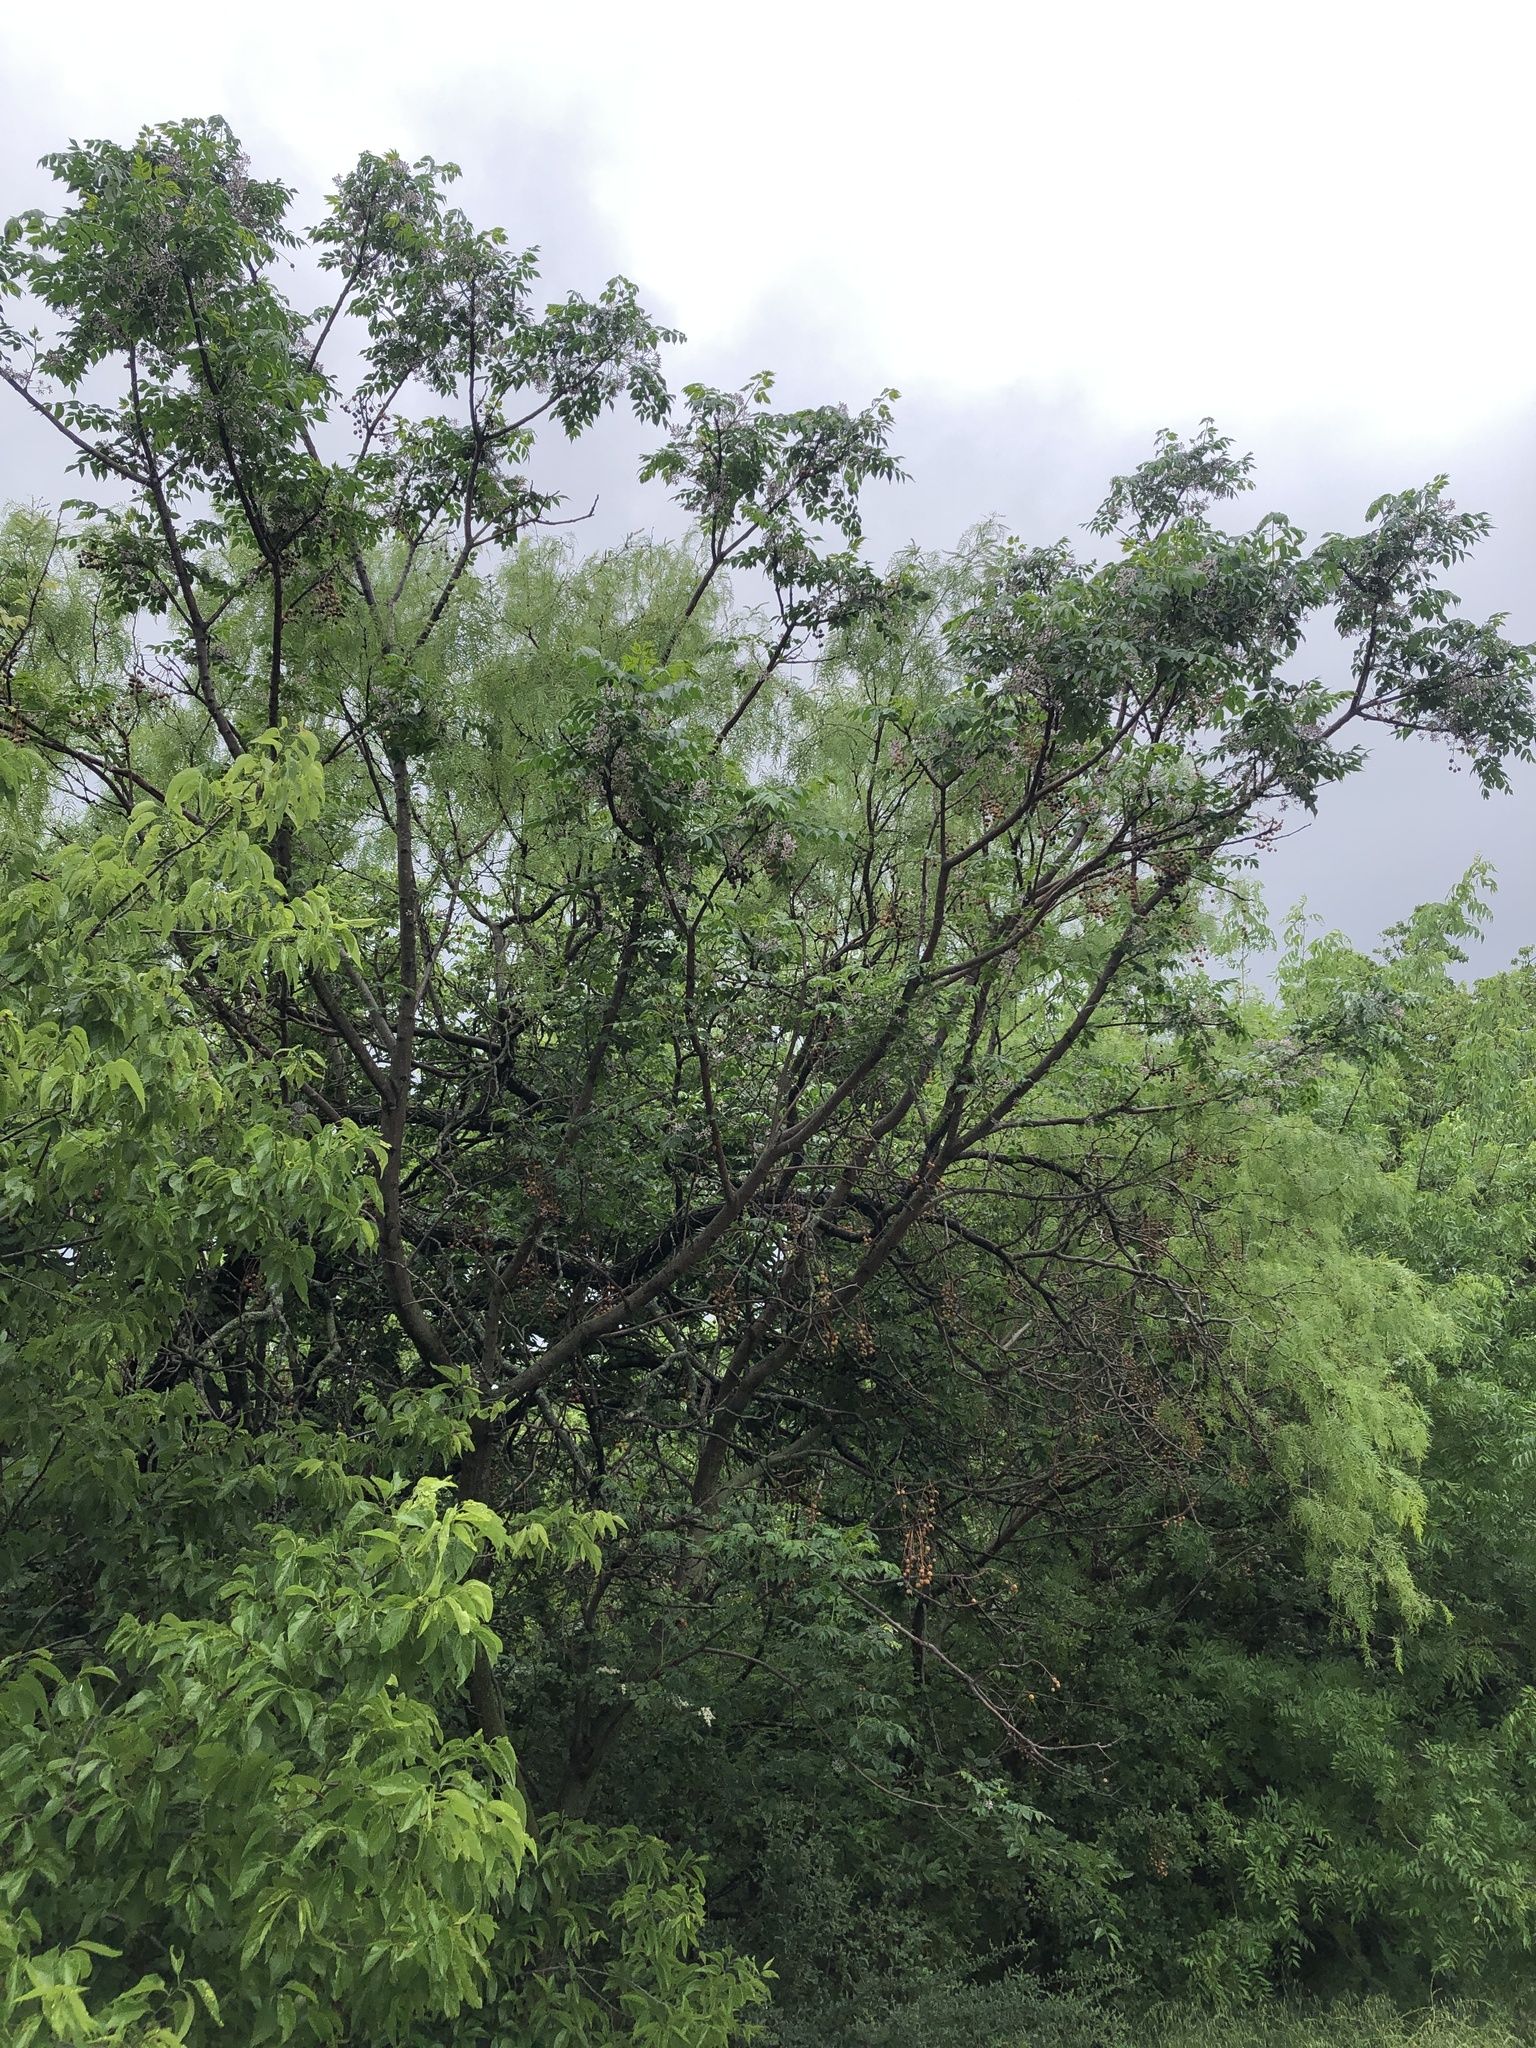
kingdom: Plantae
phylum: Tracheophyta
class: Magnoliopsida
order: Sapindales
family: Meliaceae
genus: Melia
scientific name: Melia azedarach
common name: Chinaberrytree
